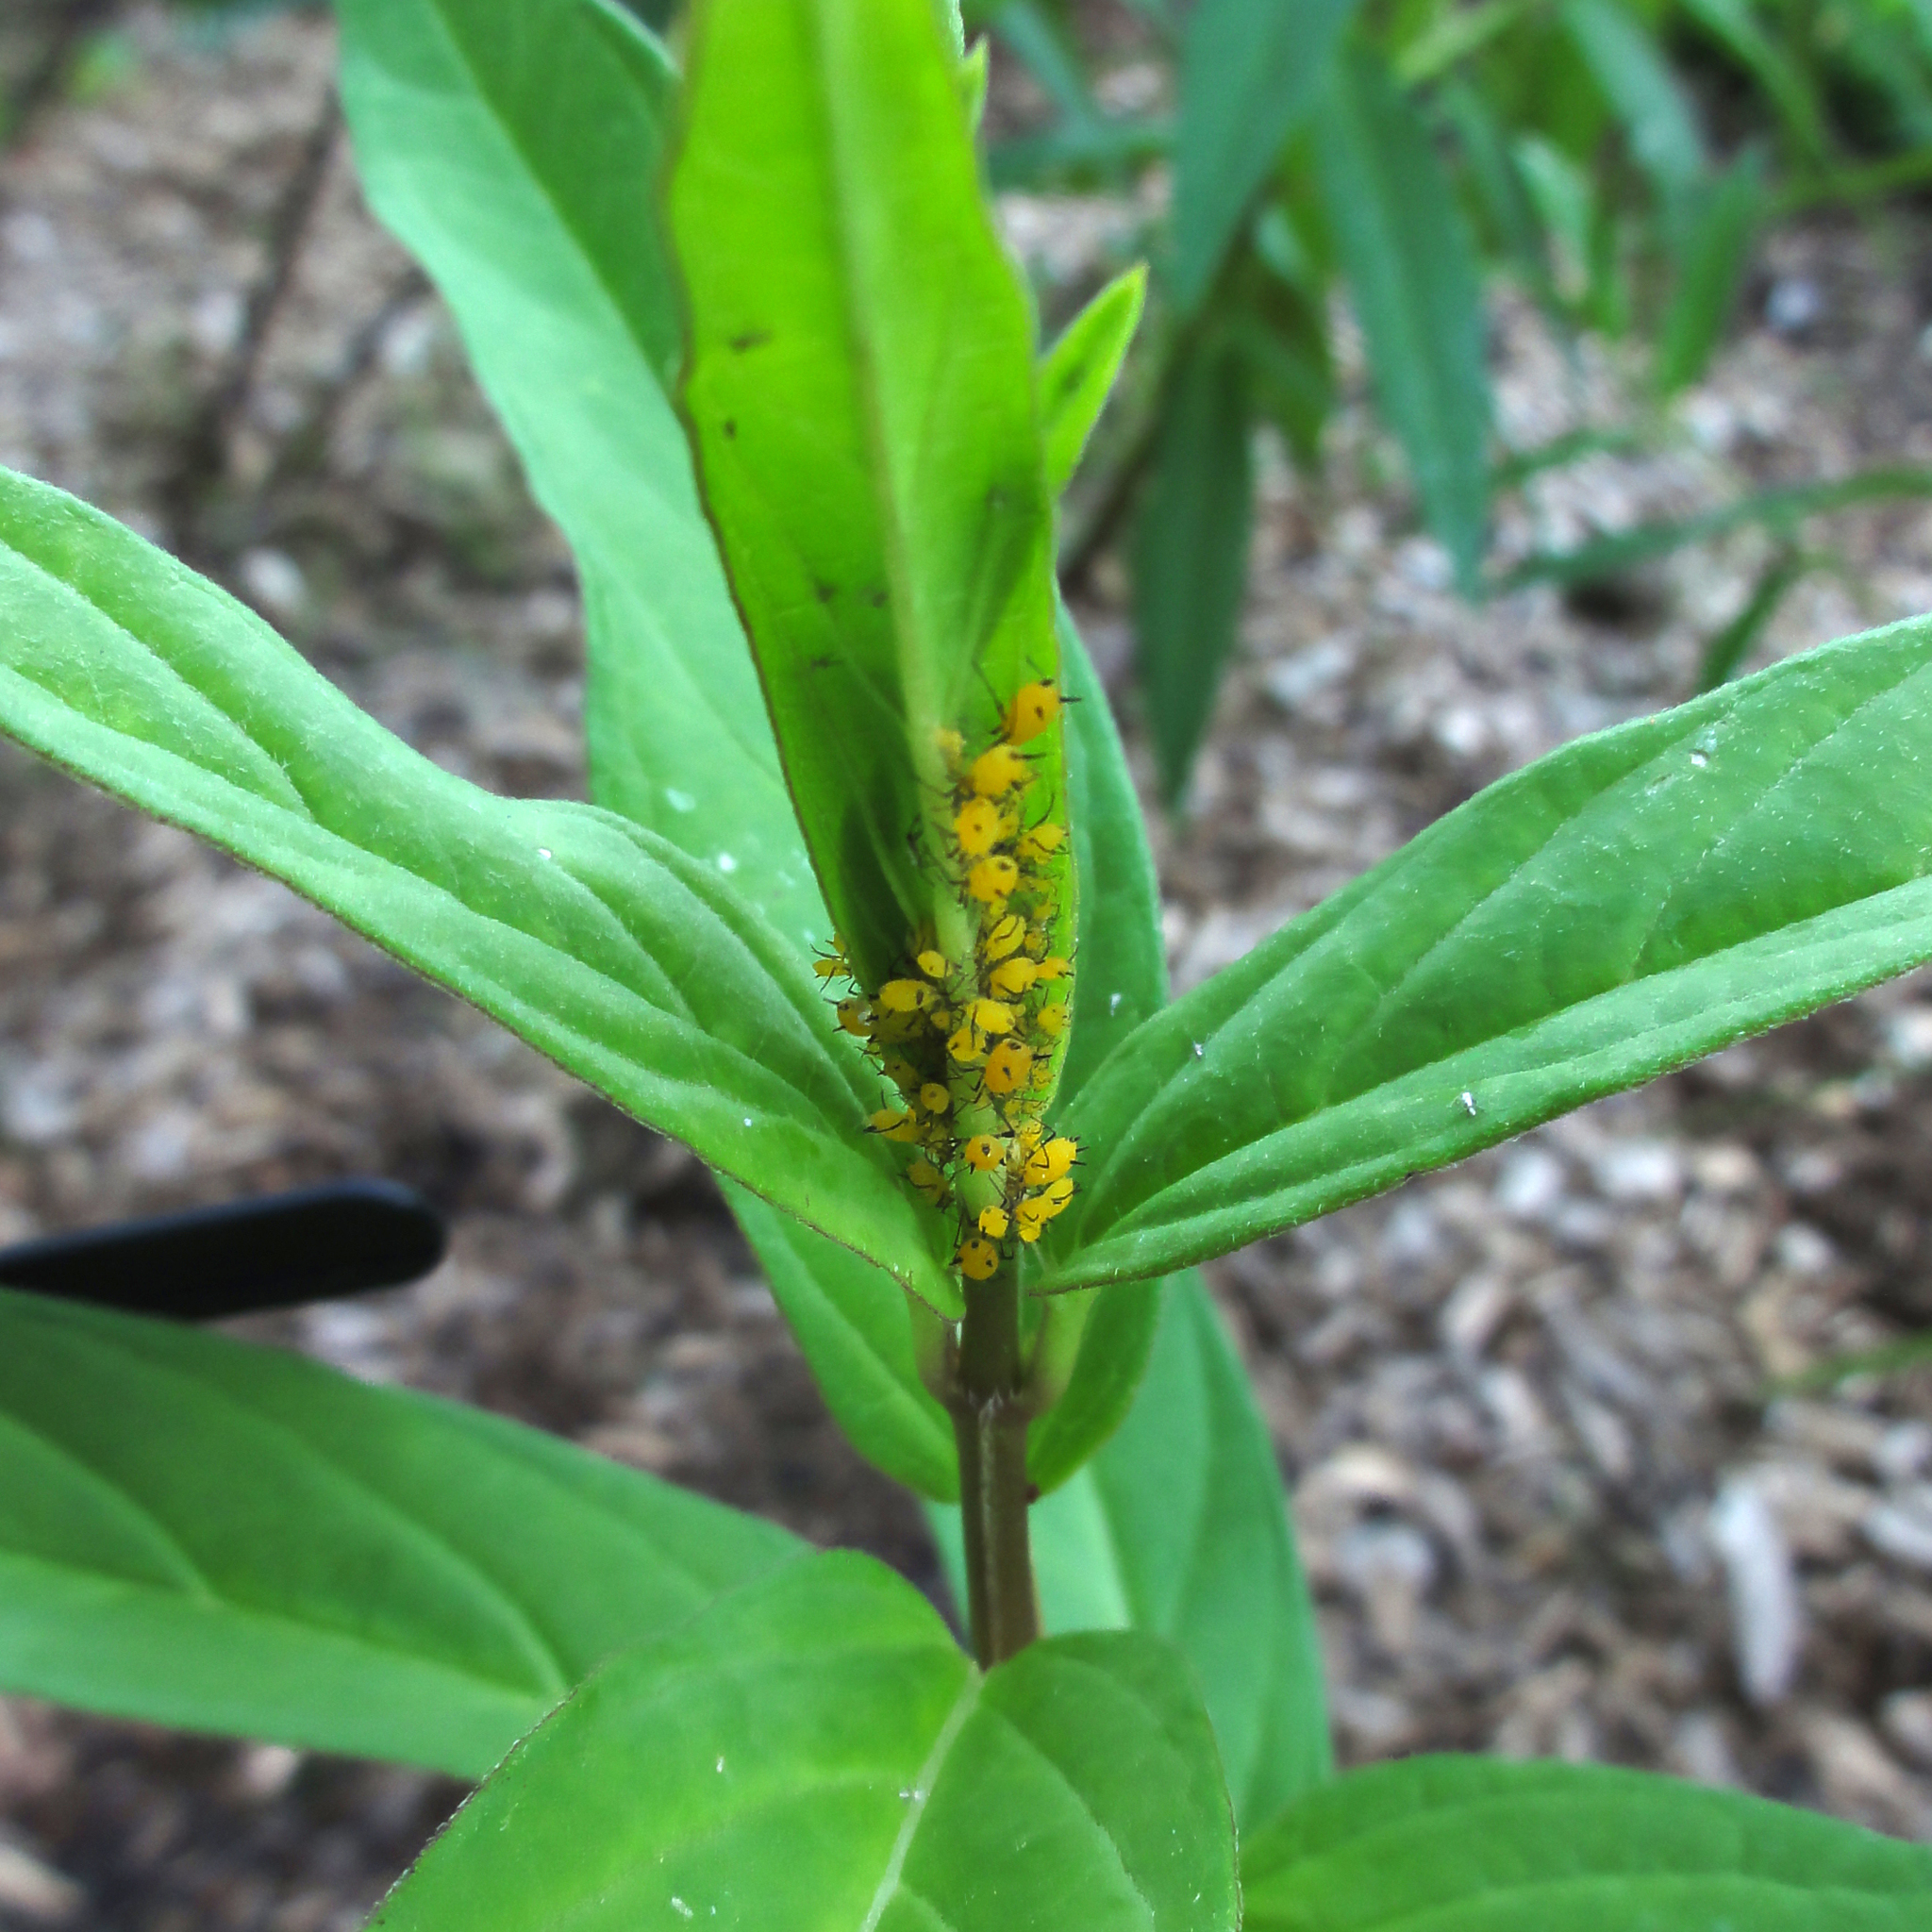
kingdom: Plantae
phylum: Tracheophyta
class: Magnoliopsida
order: Gentianales
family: Apocynaceae
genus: Asclepias
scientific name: Asclepias incarnata
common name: Swamp milkweed
